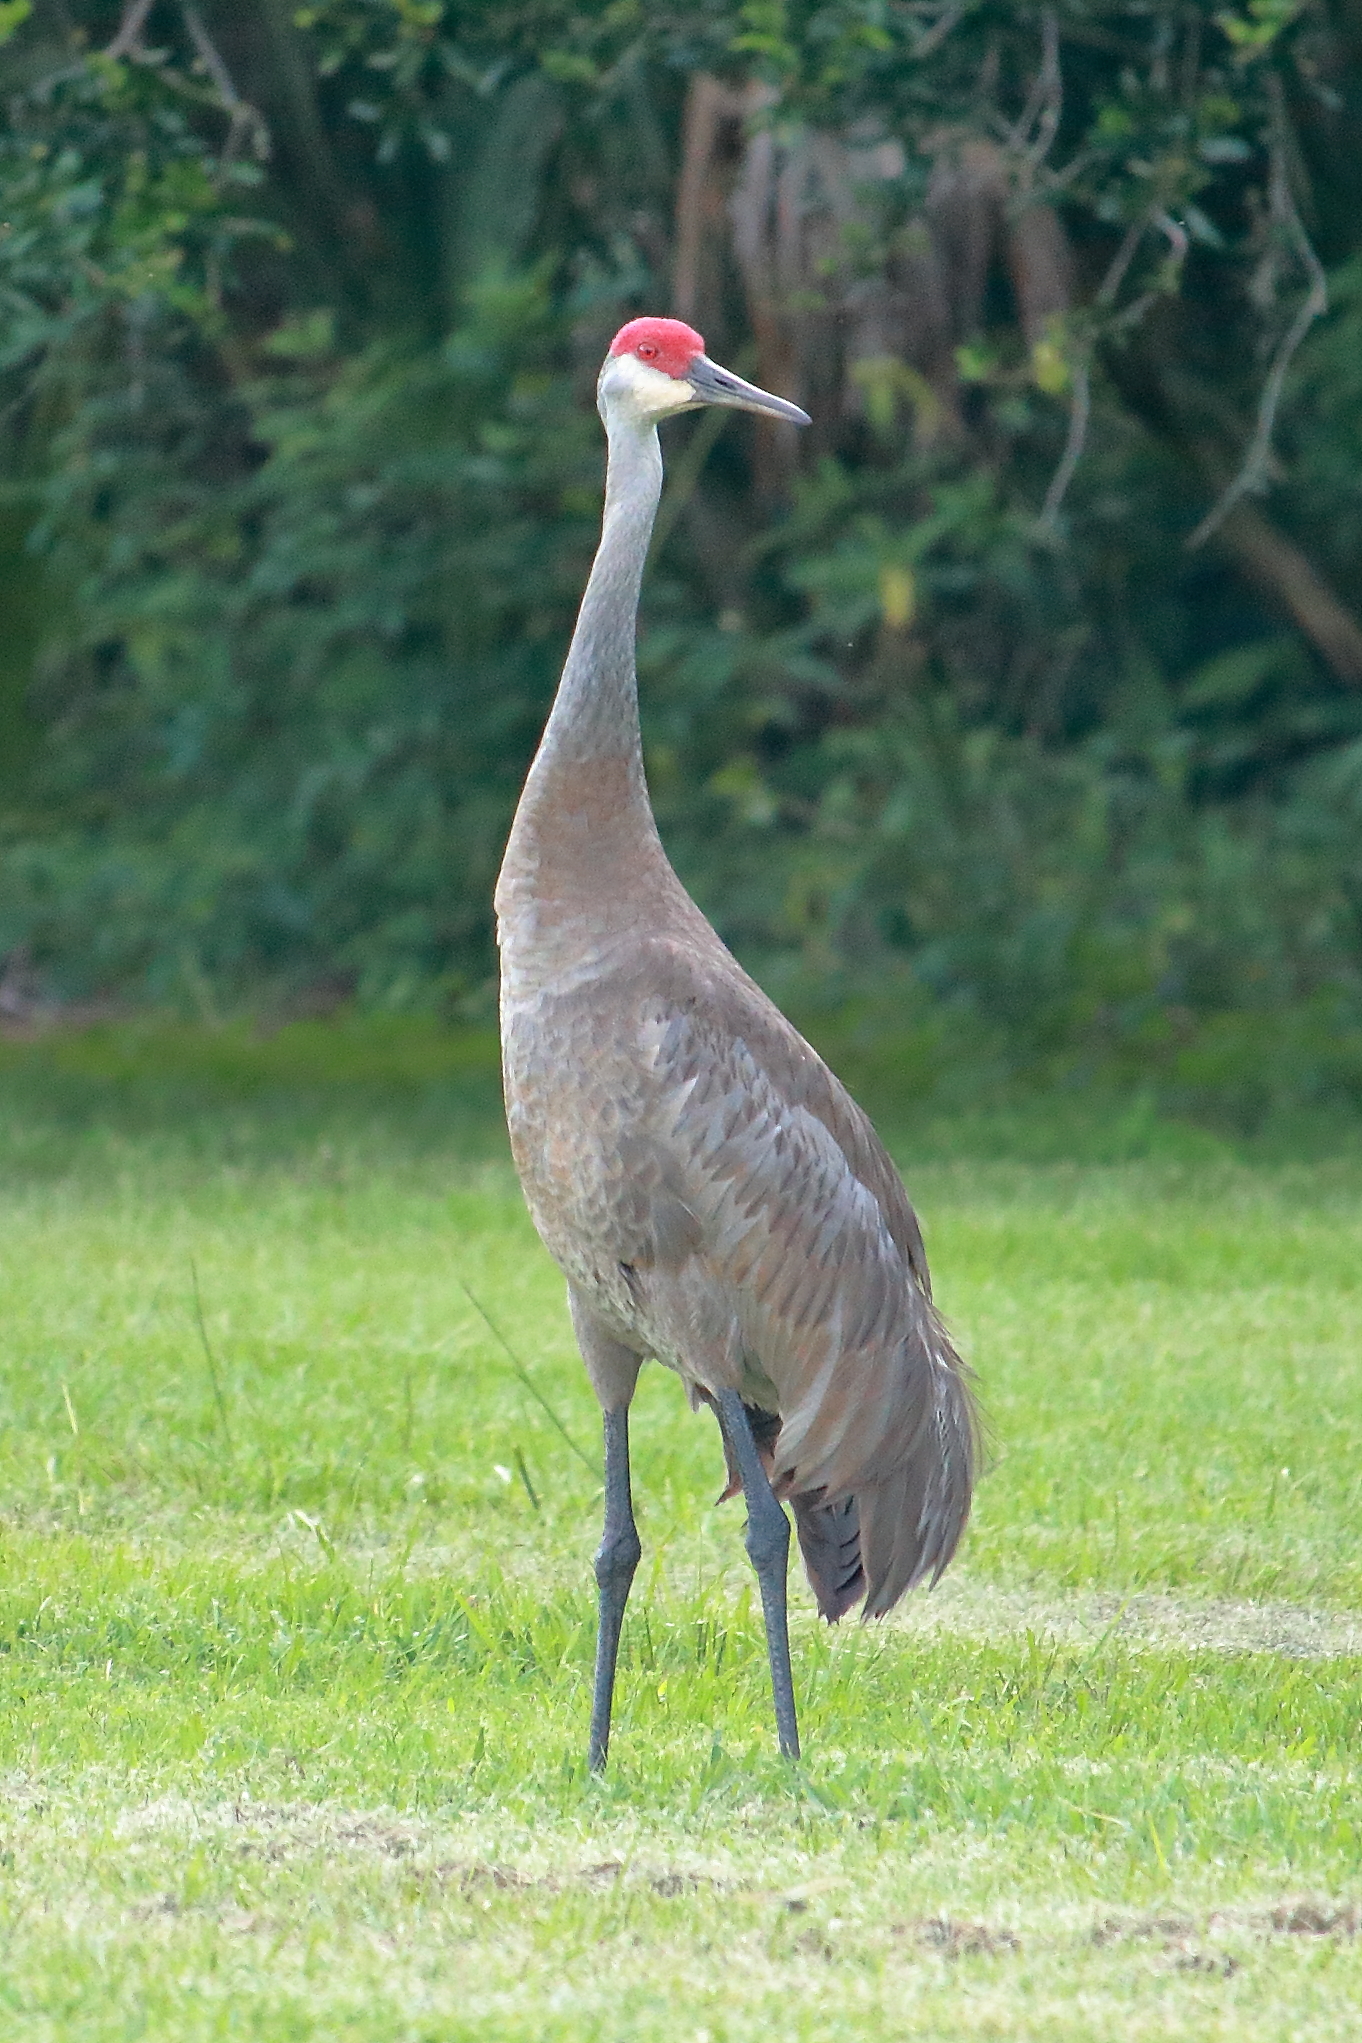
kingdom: Animalia
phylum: Chordata
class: Aves
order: Gruiformes
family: Gruidae
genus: Grus
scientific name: Grus canadensis
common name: Sandhill crane
